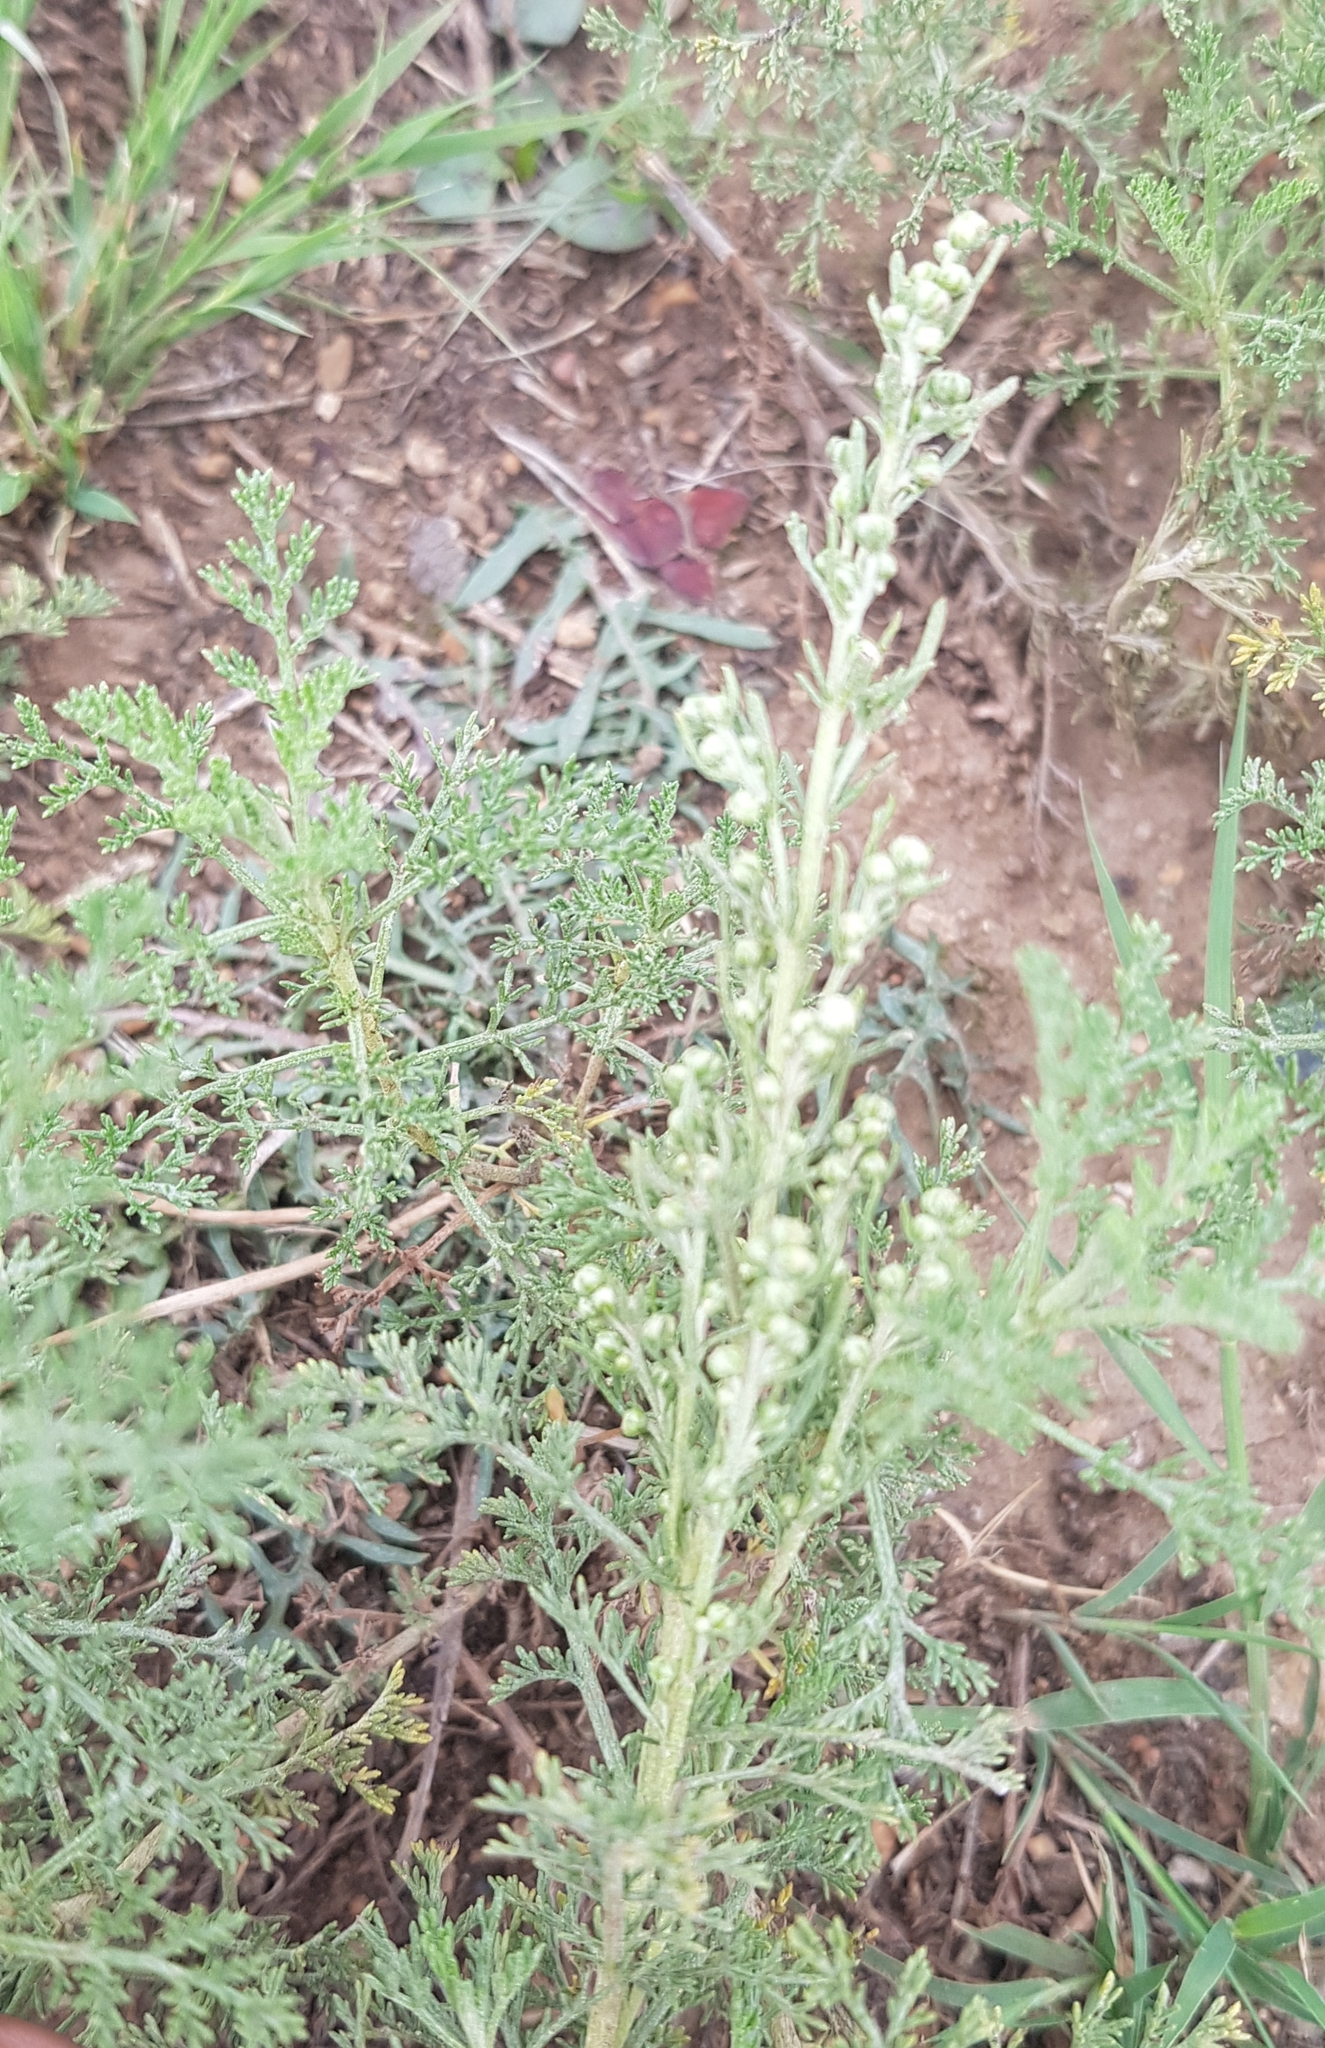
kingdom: Plantae
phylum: Tracheophyta
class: Magnoliopsida
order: Asterales
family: Asteraceae
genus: Artemisia
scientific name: Artemisia sieversiana
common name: Sieversian wormwood
